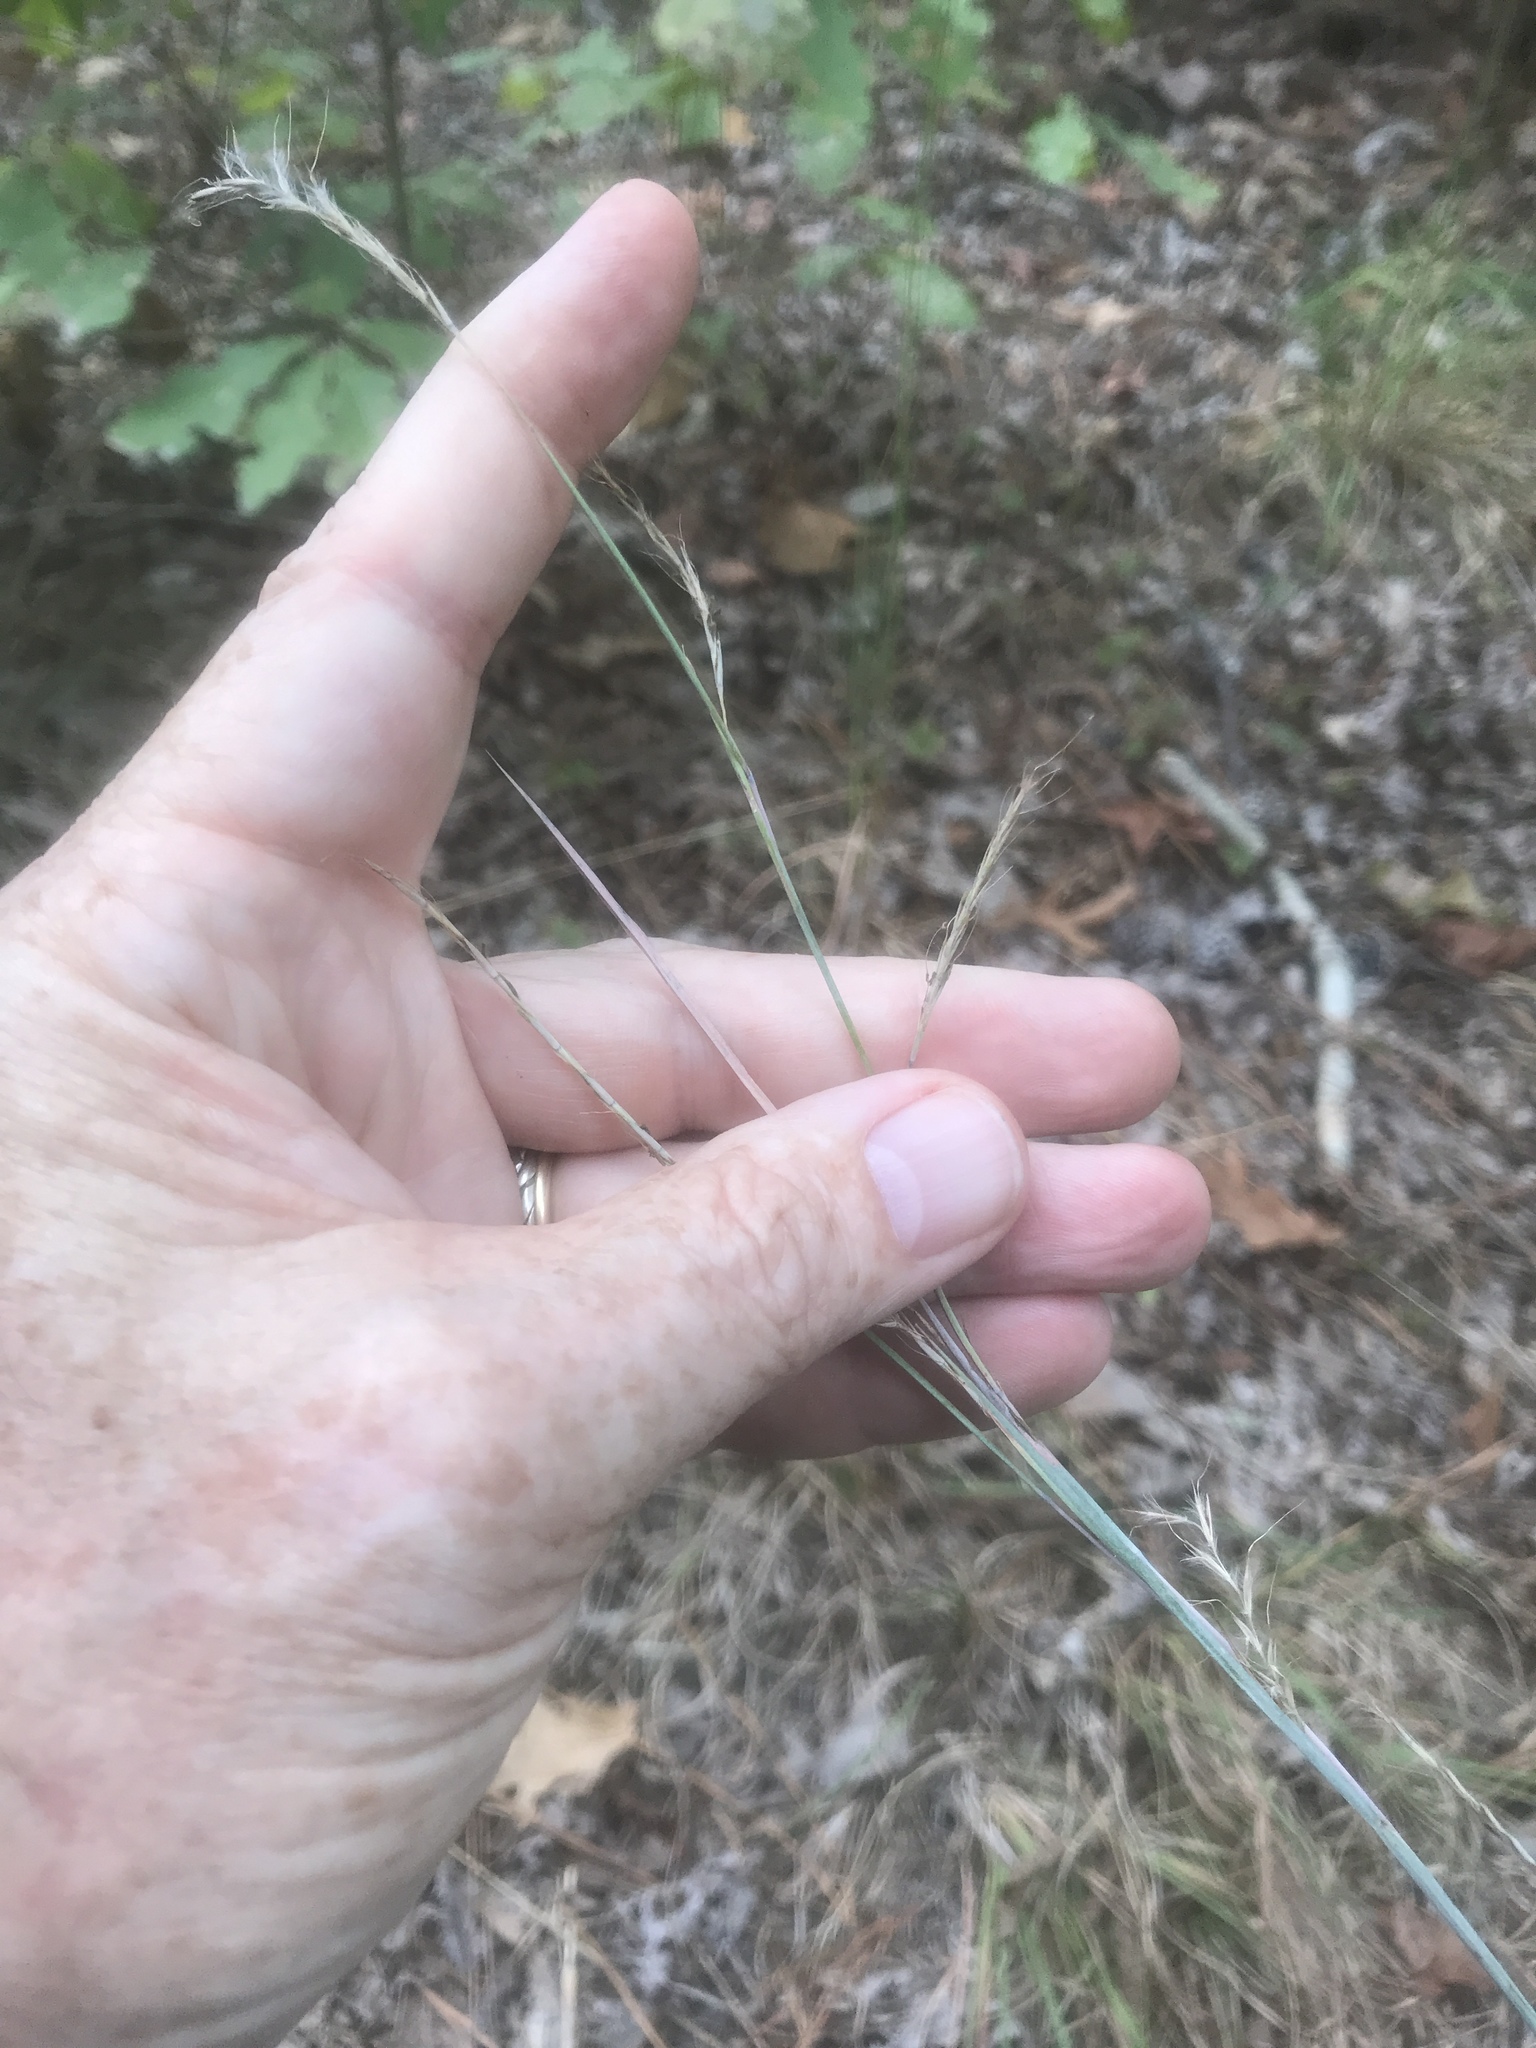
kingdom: Plantae
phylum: Tracheophyta
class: Liliopsida
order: Poales
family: Poaceae
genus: Schizachyrium
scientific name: Schizachyrium scoparium
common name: Little bluestem
